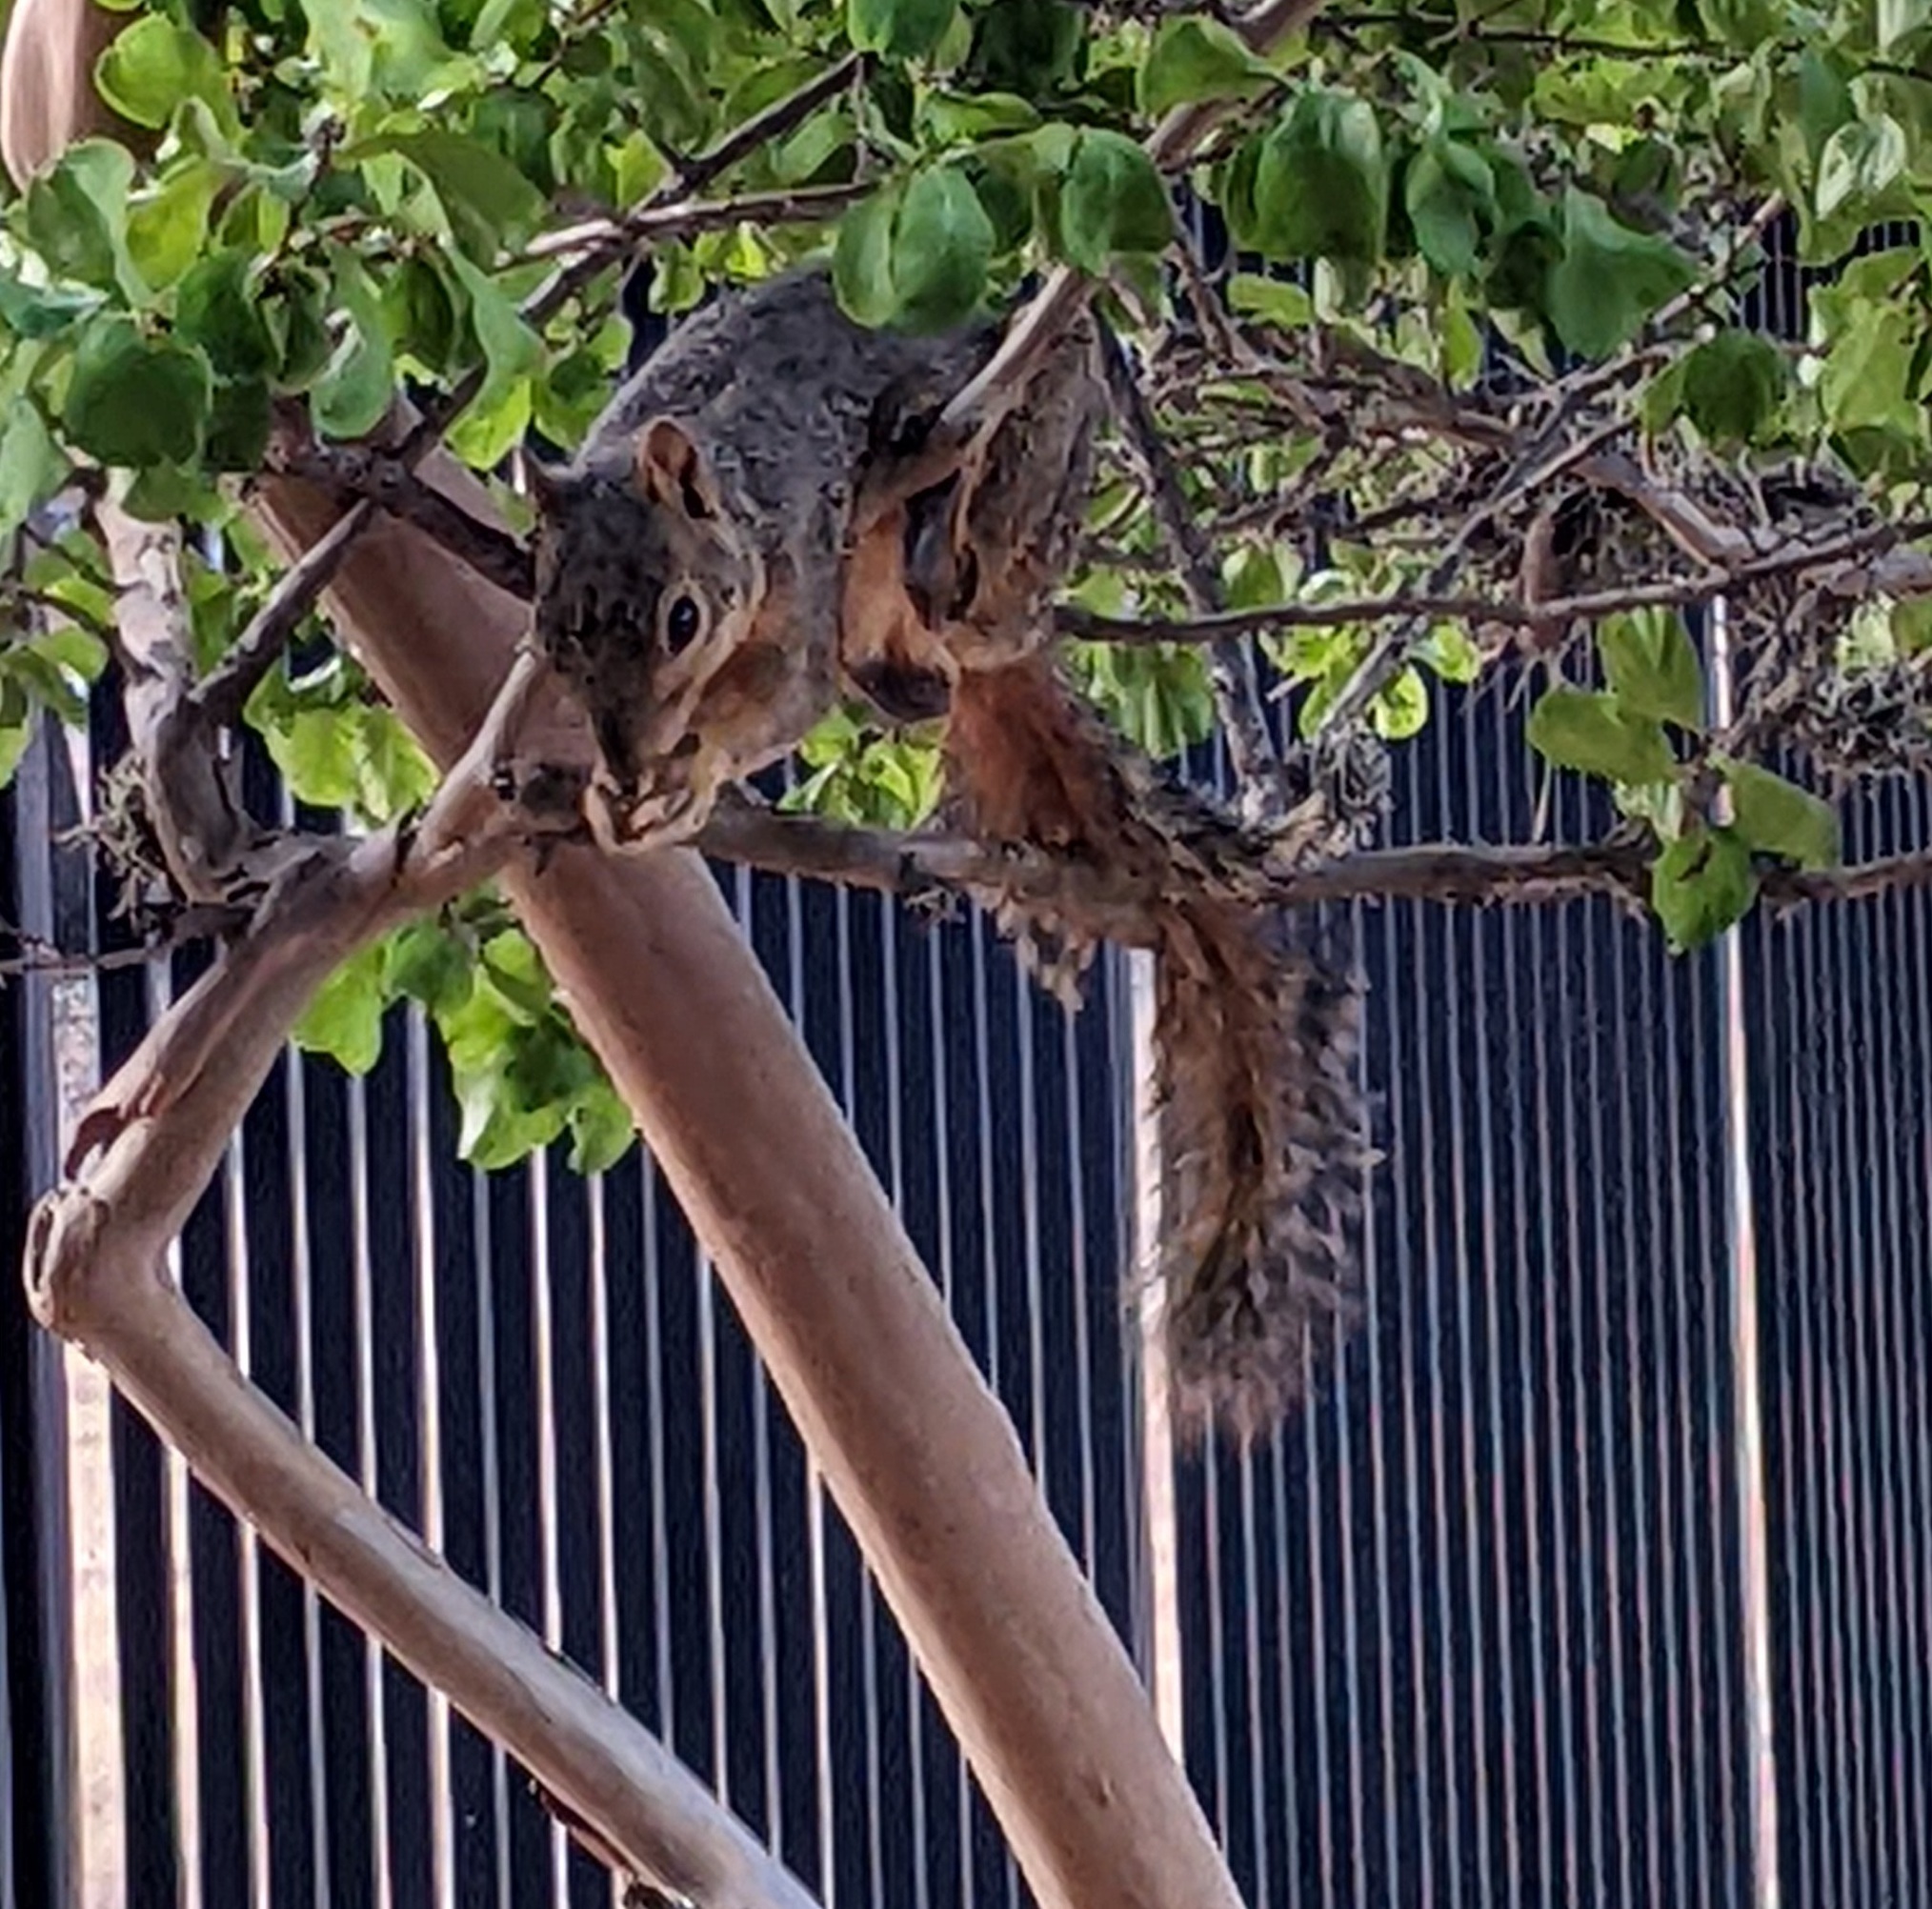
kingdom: Animalia
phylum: Chordata
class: Mammalia
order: Rodentia
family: Sciuridae
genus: Sciurus
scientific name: Sciurus niger
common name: Fox squirrel
